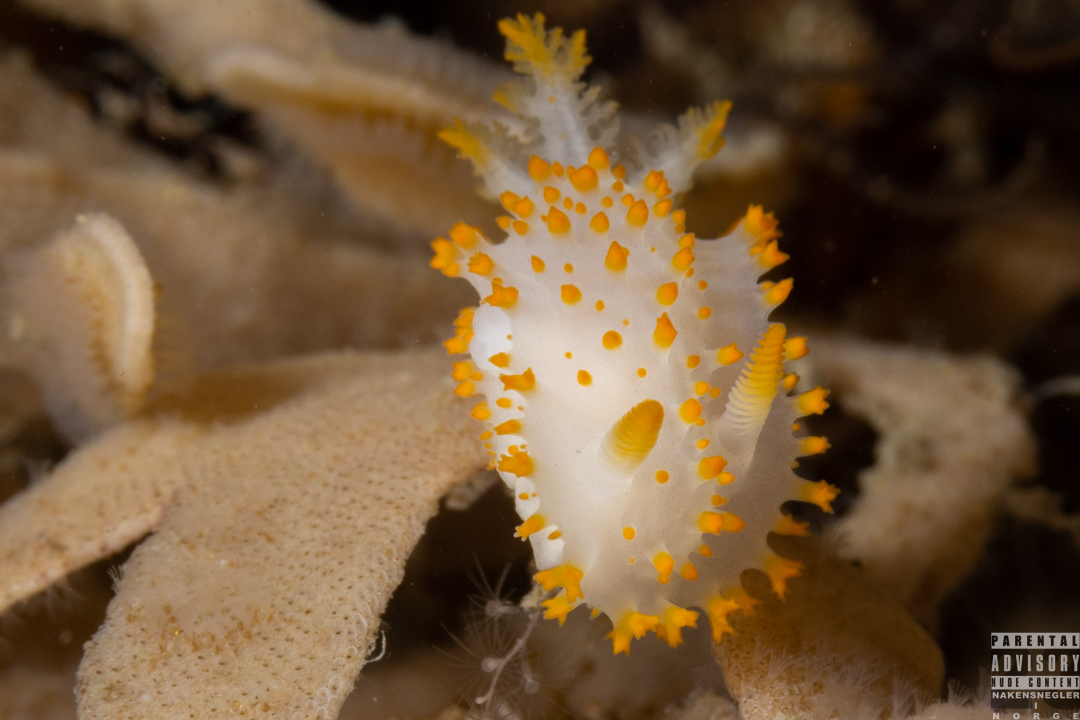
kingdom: Animalia
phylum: Mollusca
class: Gastropoda
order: Nudibranchia
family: Polyceridae
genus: Crimora
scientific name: Crimora papillata
